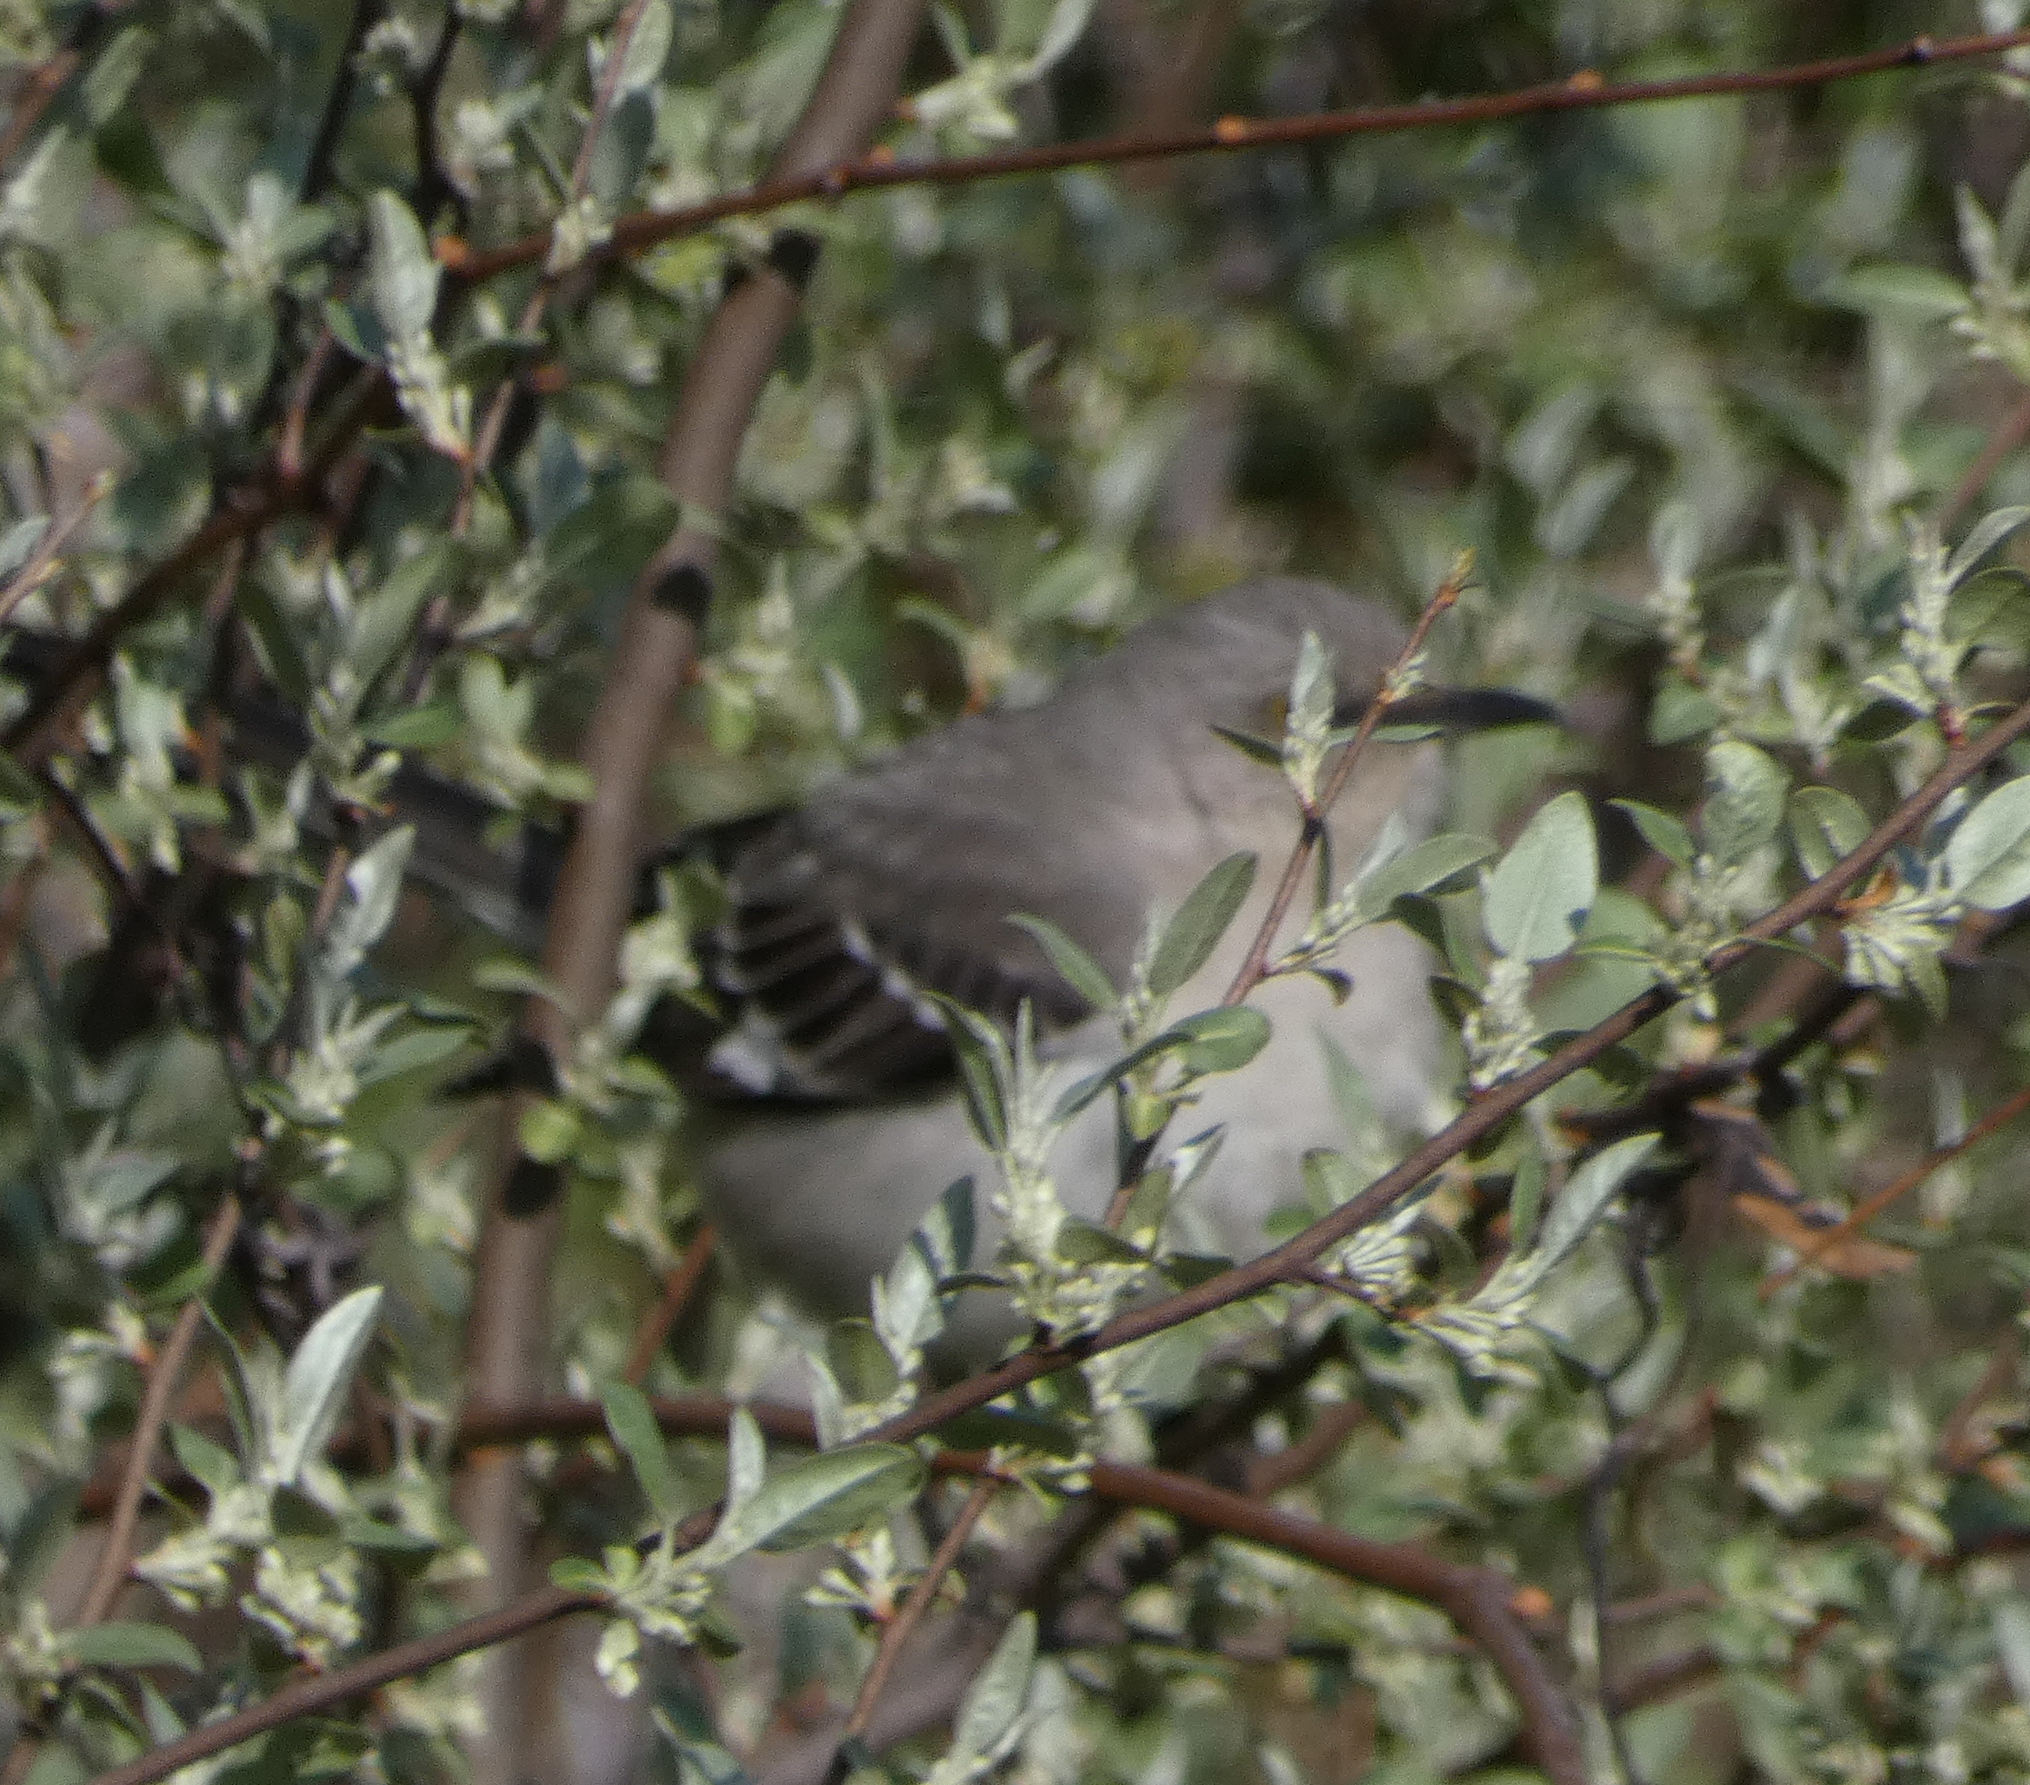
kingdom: Animalia
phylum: Chordata
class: Aves
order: Passeriformes
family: Mimidae
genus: Mimus
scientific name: Mimus polyglottos
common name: Northern mockingbird
